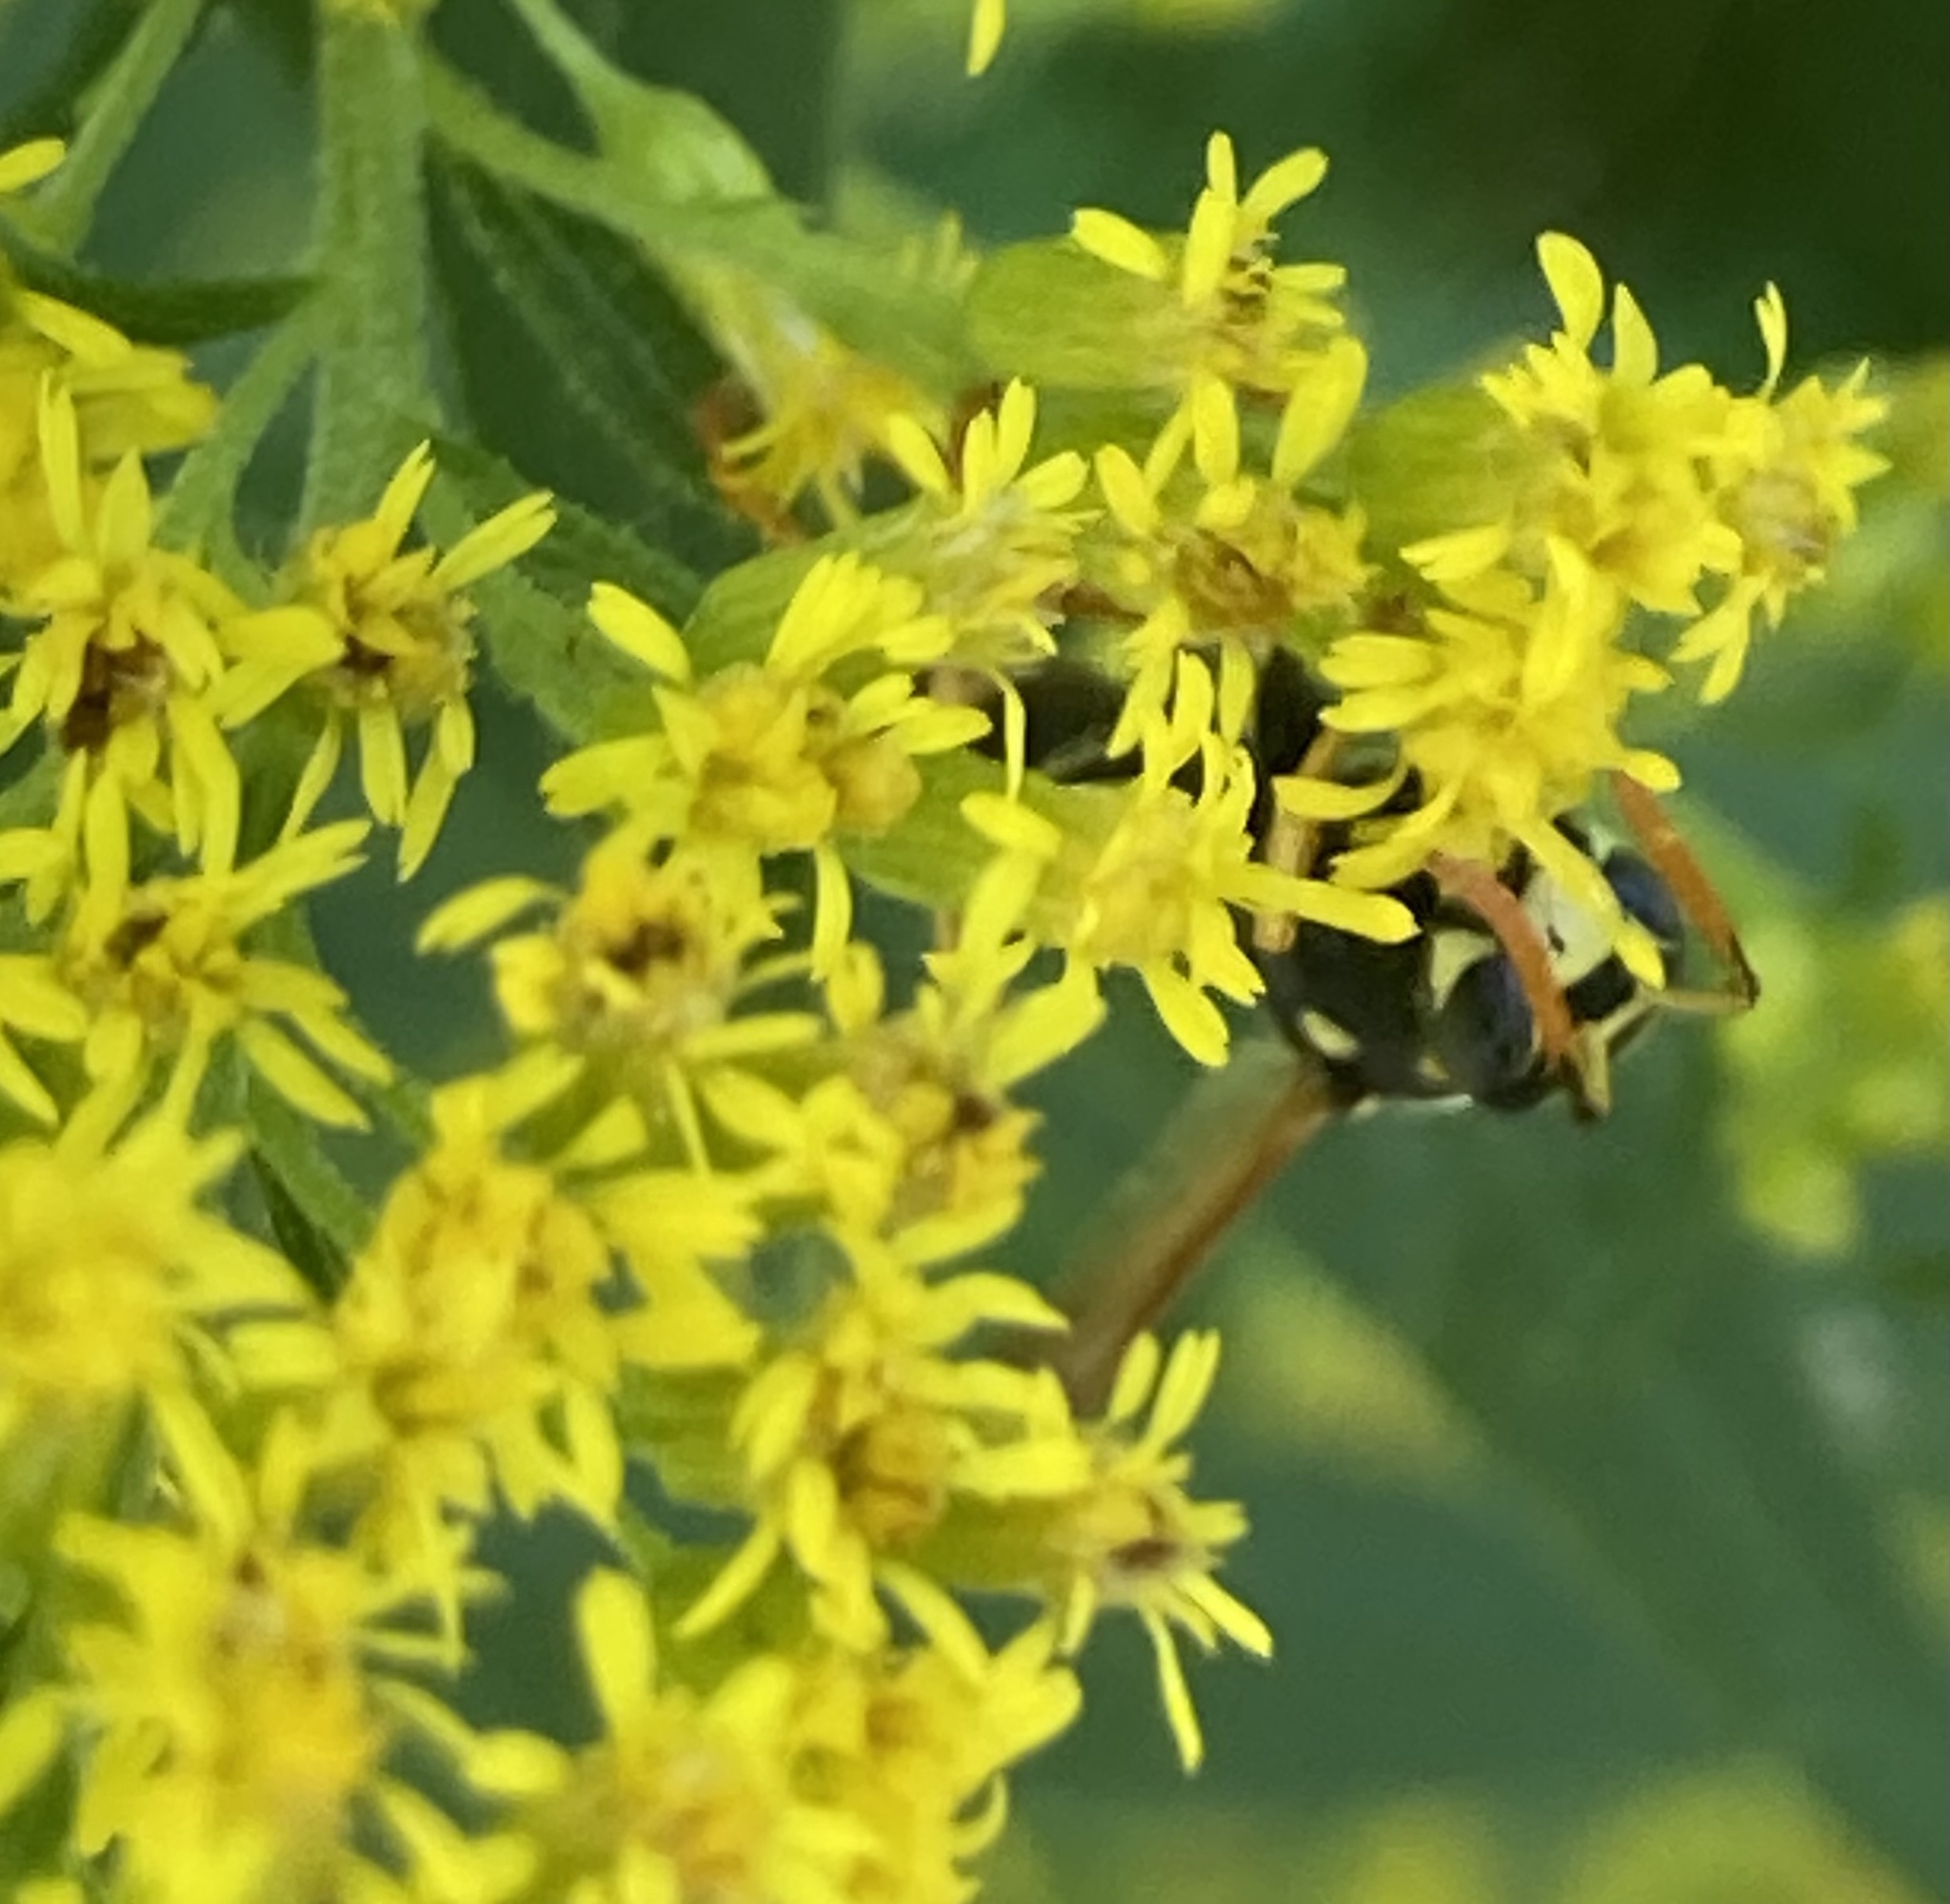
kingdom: Animalia
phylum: Arthropoda
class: Insecta
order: Hymenoptera
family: Eumenidae
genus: Polistes
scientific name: Polistes dominula
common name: Paper wasp
